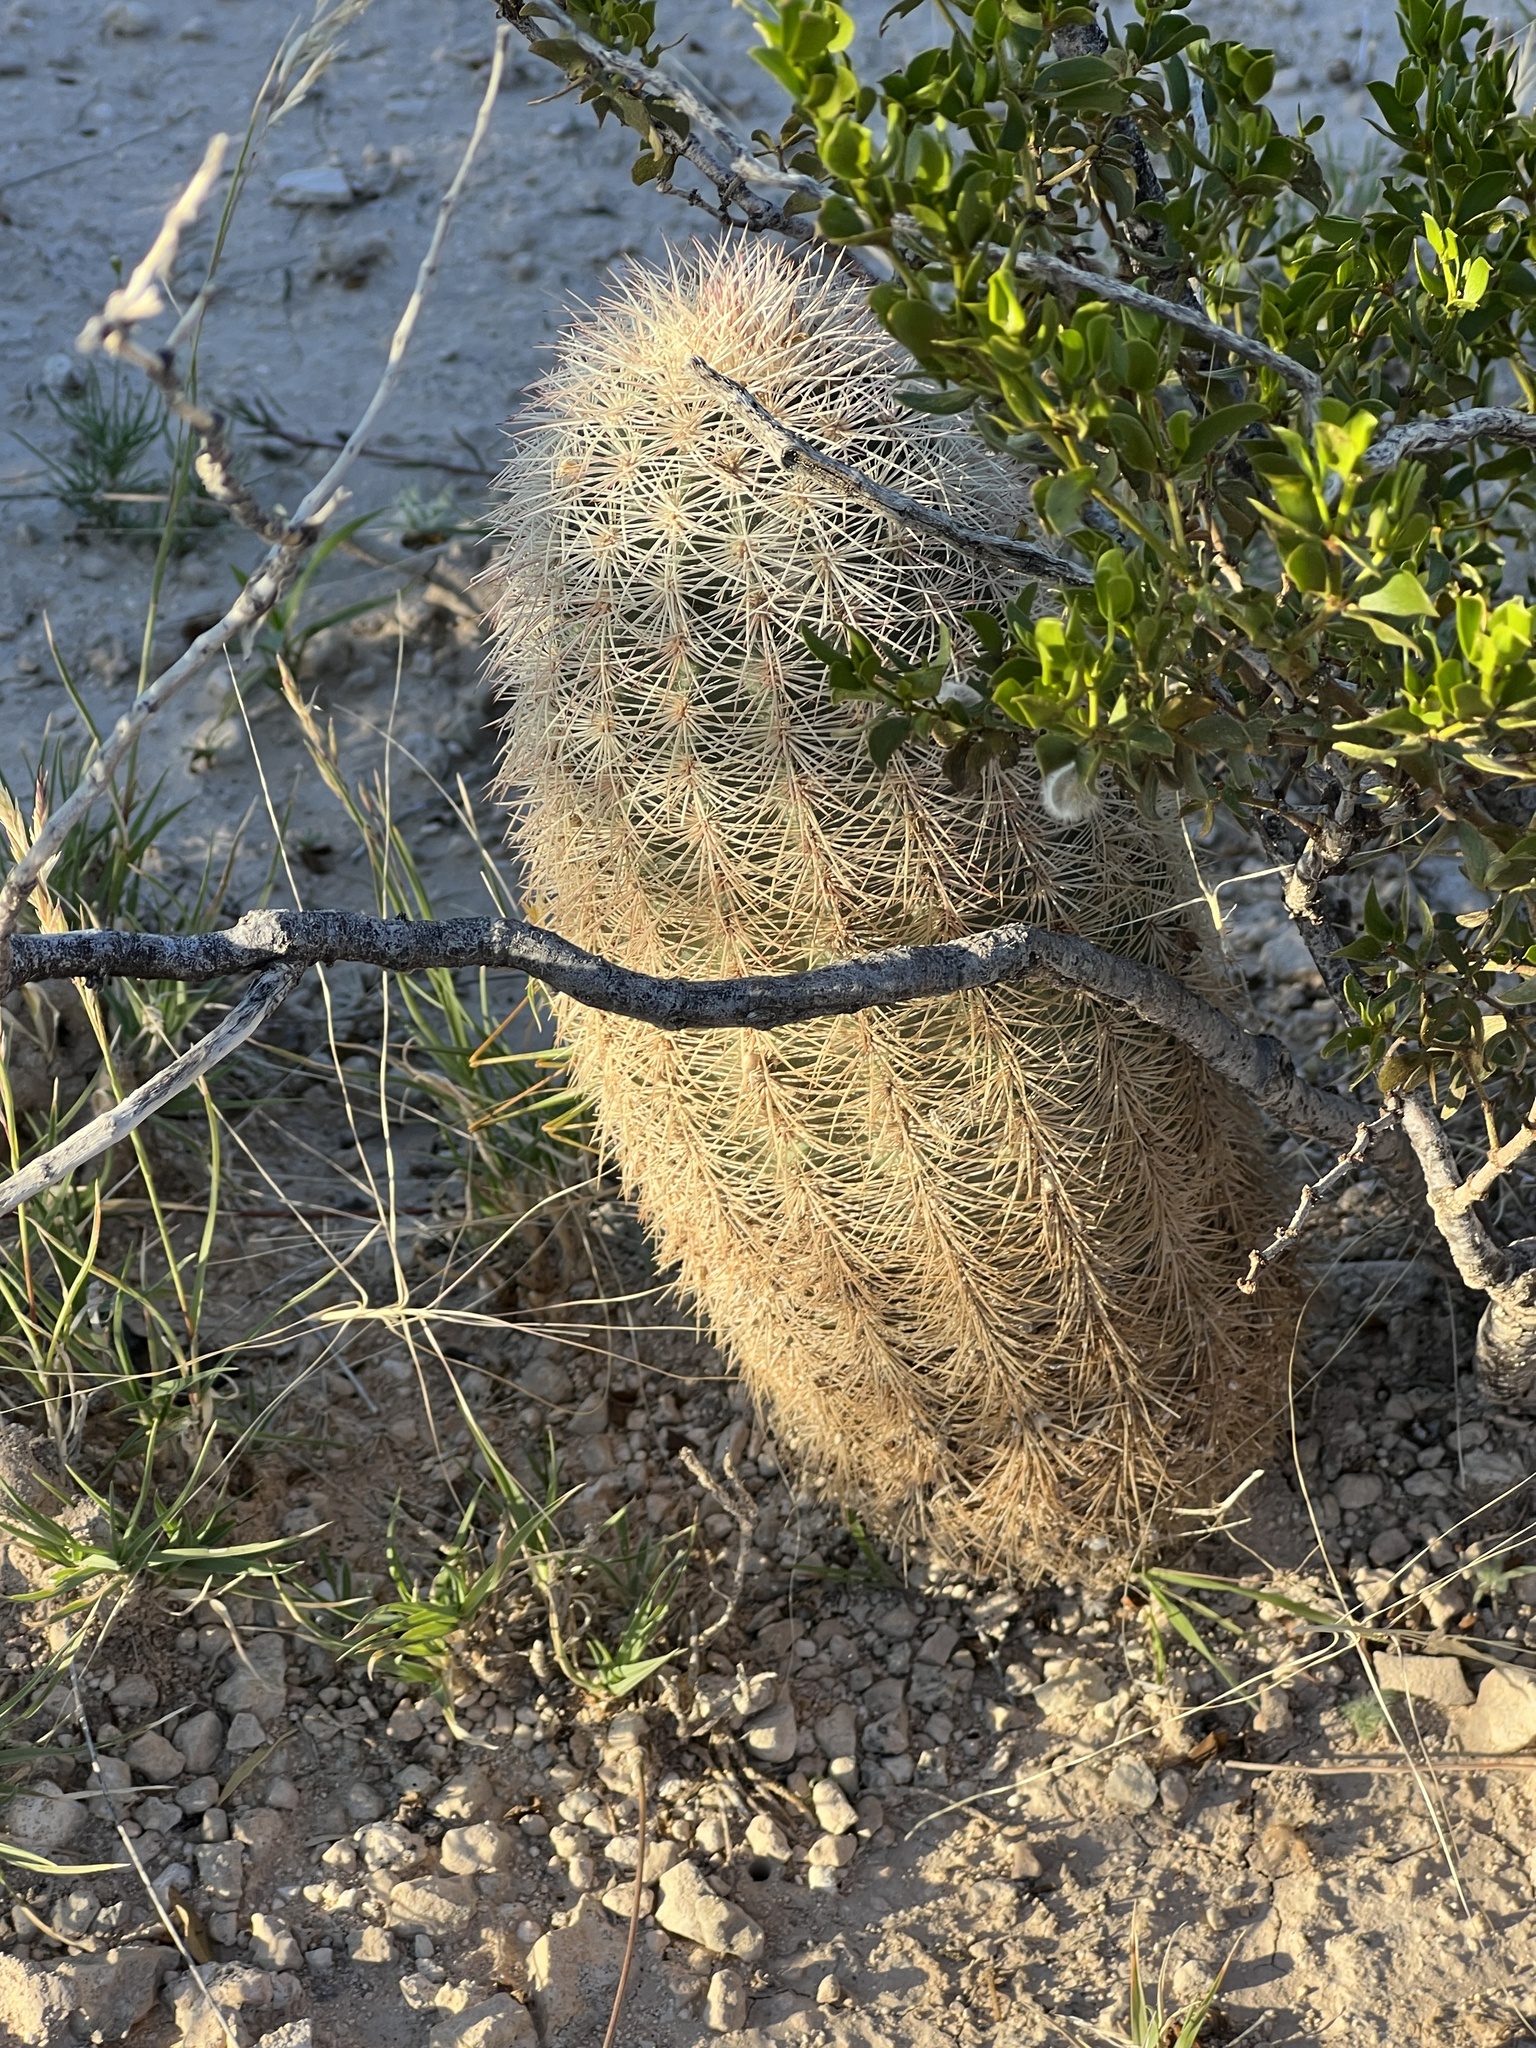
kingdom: Plantae
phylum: Tracheophyta
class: Magnoliopsida
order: Caryophyllales
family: Cactaceae
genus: Echinocereus
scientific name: Echinocereus dasyacanthus
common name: Spiny hedgehog cactus
